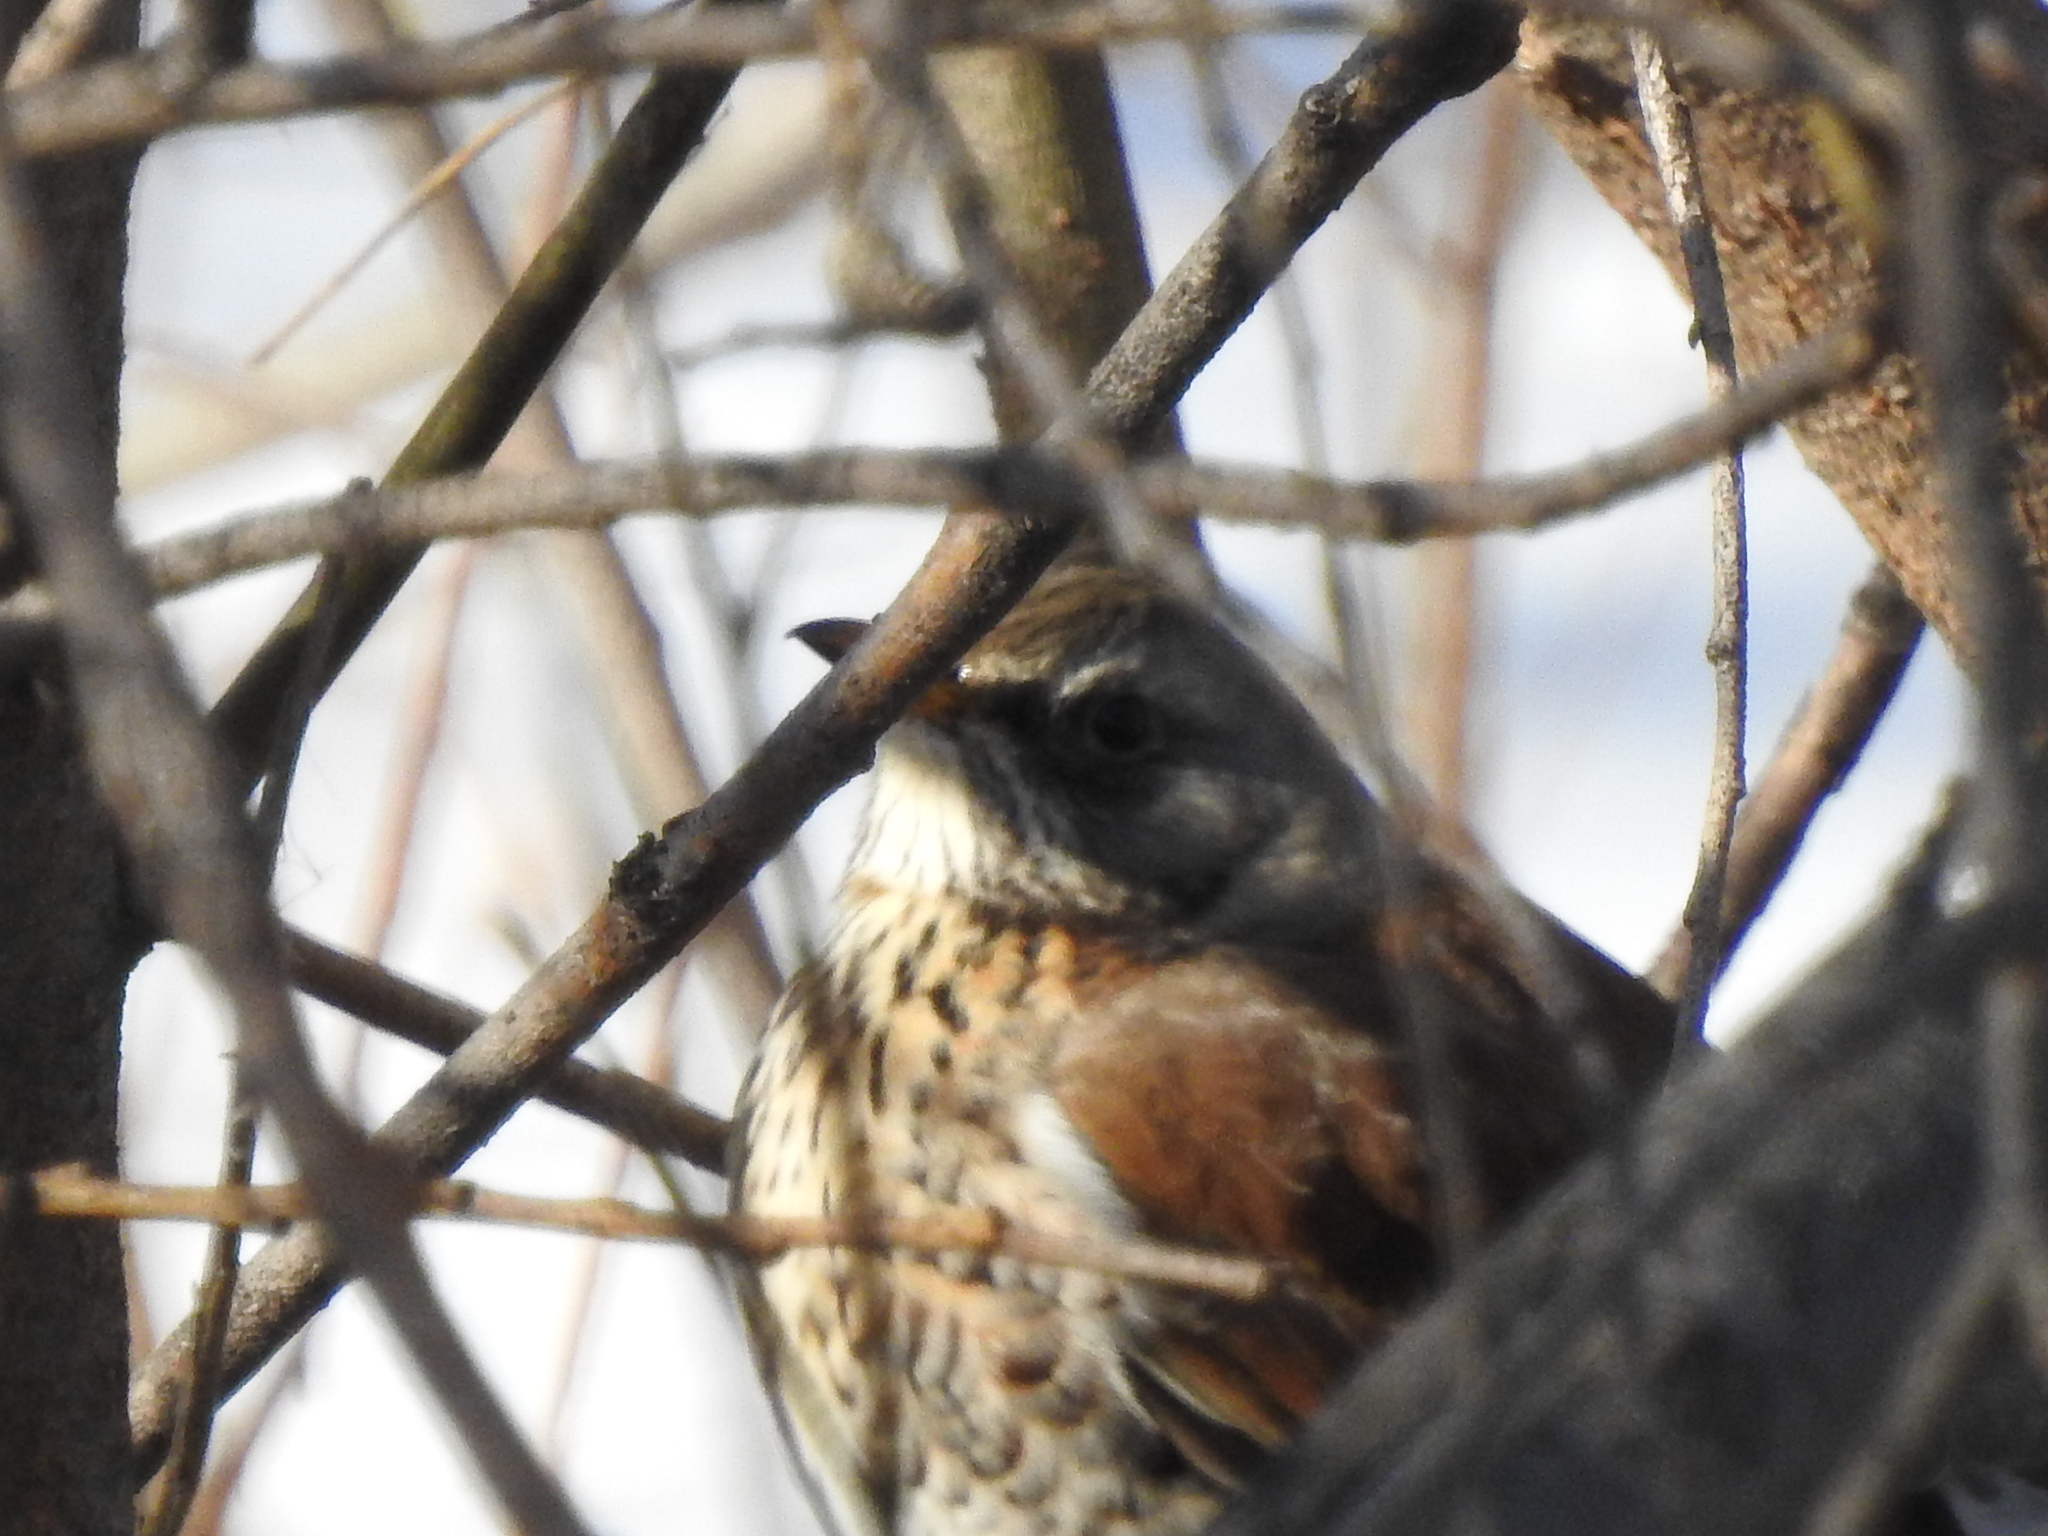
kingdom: Animalia
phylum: Chordata
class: Aves
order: Passeriformes
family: Turdidae
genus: Turdus
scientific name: Turdus pilaris
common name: Fieldfare
